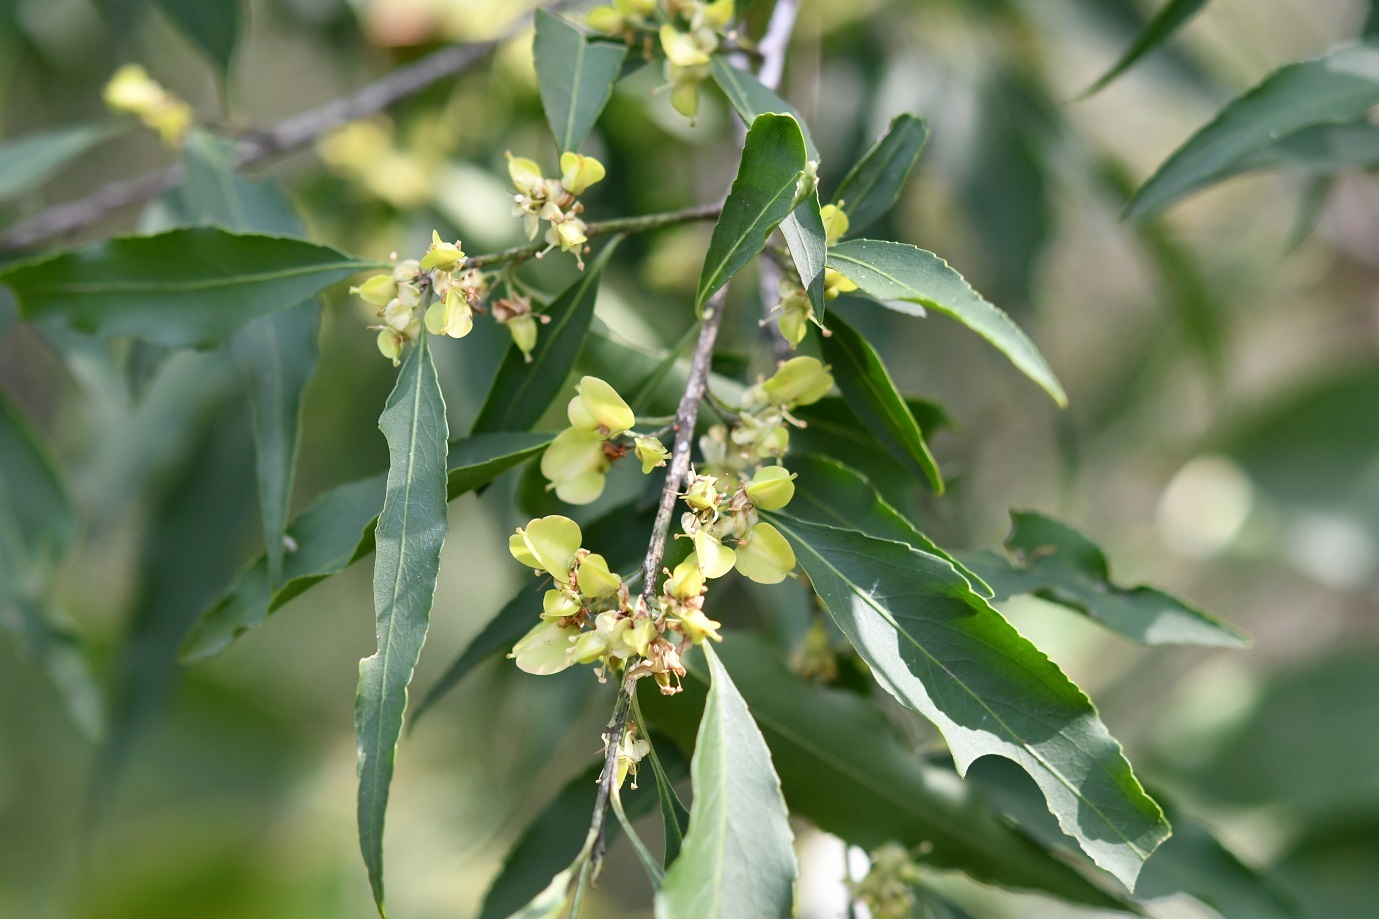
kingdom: Plantae
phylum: Tracheophyta
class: Magnoliopsida
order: Celastrales
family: Celastraceae
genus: Wimmeria
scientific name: Wimmeria acuminata
